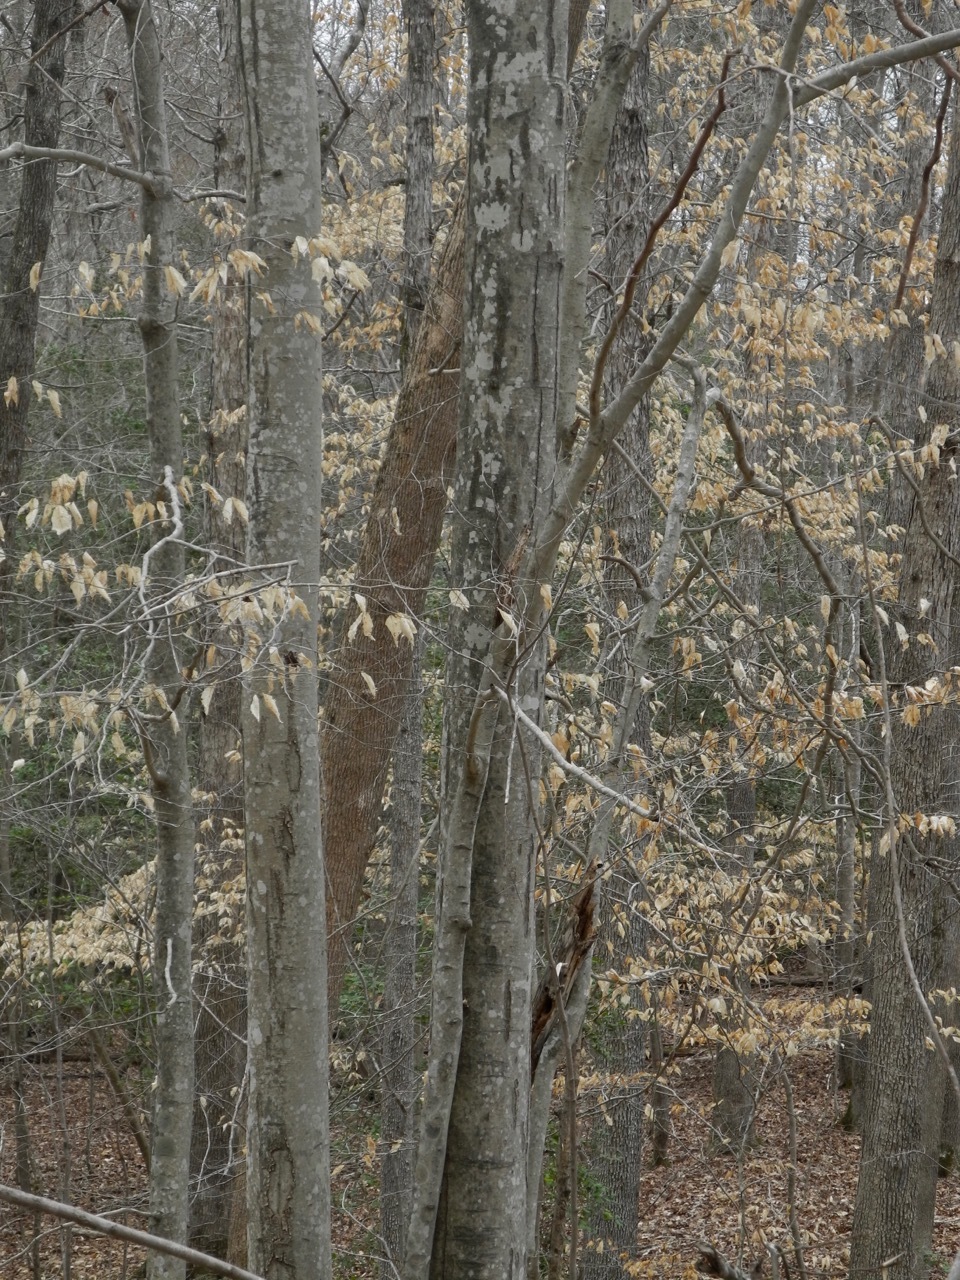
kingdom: Plantae
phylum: Tracheophyta
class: Magnoliopsida
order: Fagales
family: Fagaceae
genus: Fagus
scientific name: Fagus grandifolia
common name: American beech
